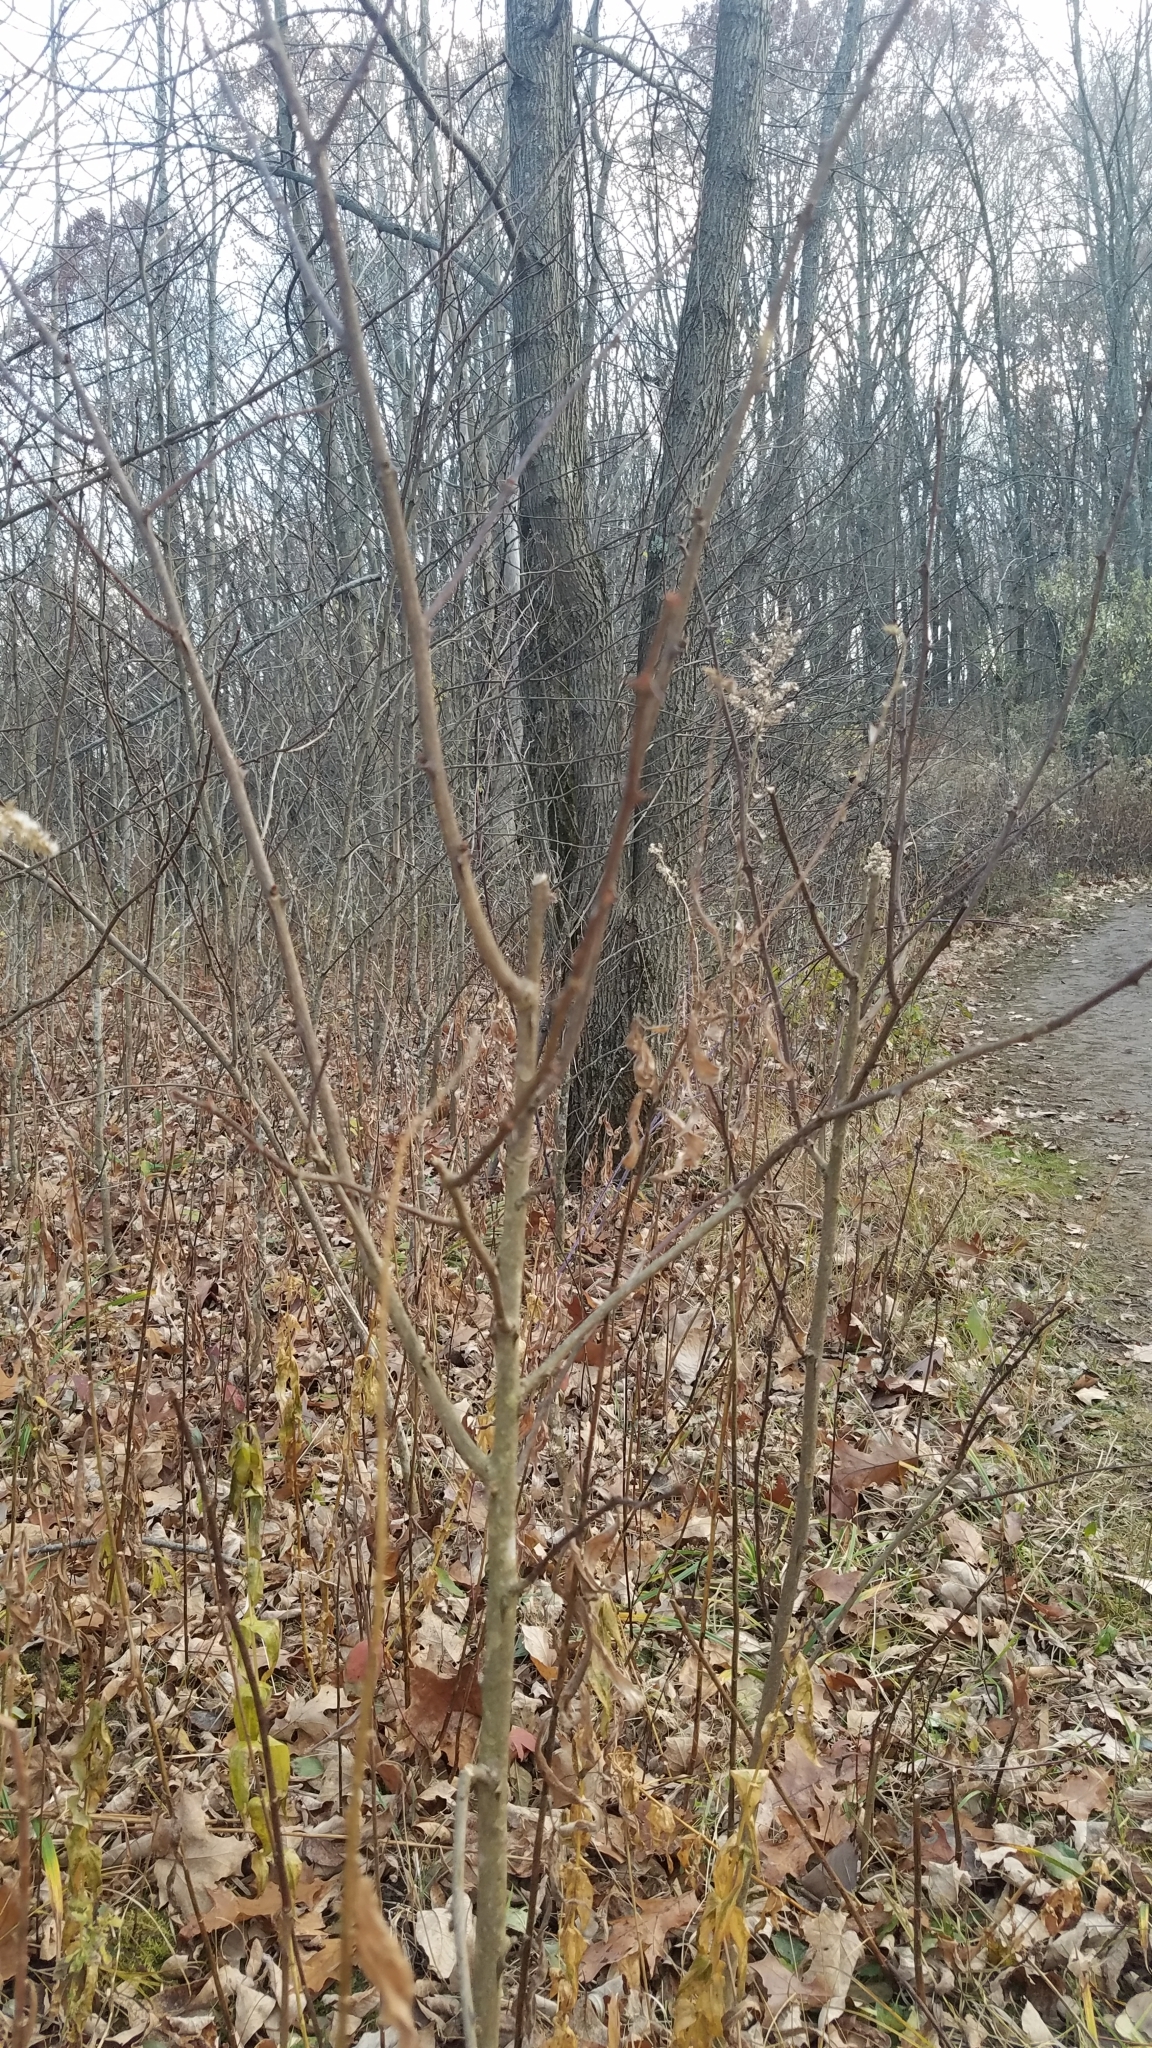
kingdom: Plantae
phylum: Tracheophyta
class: Magnoliopsida
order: Sapindales
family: Rutaceae
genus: Zanthoxylum
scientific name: Zanthoxylum americanum
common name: Northern prickly-ash
